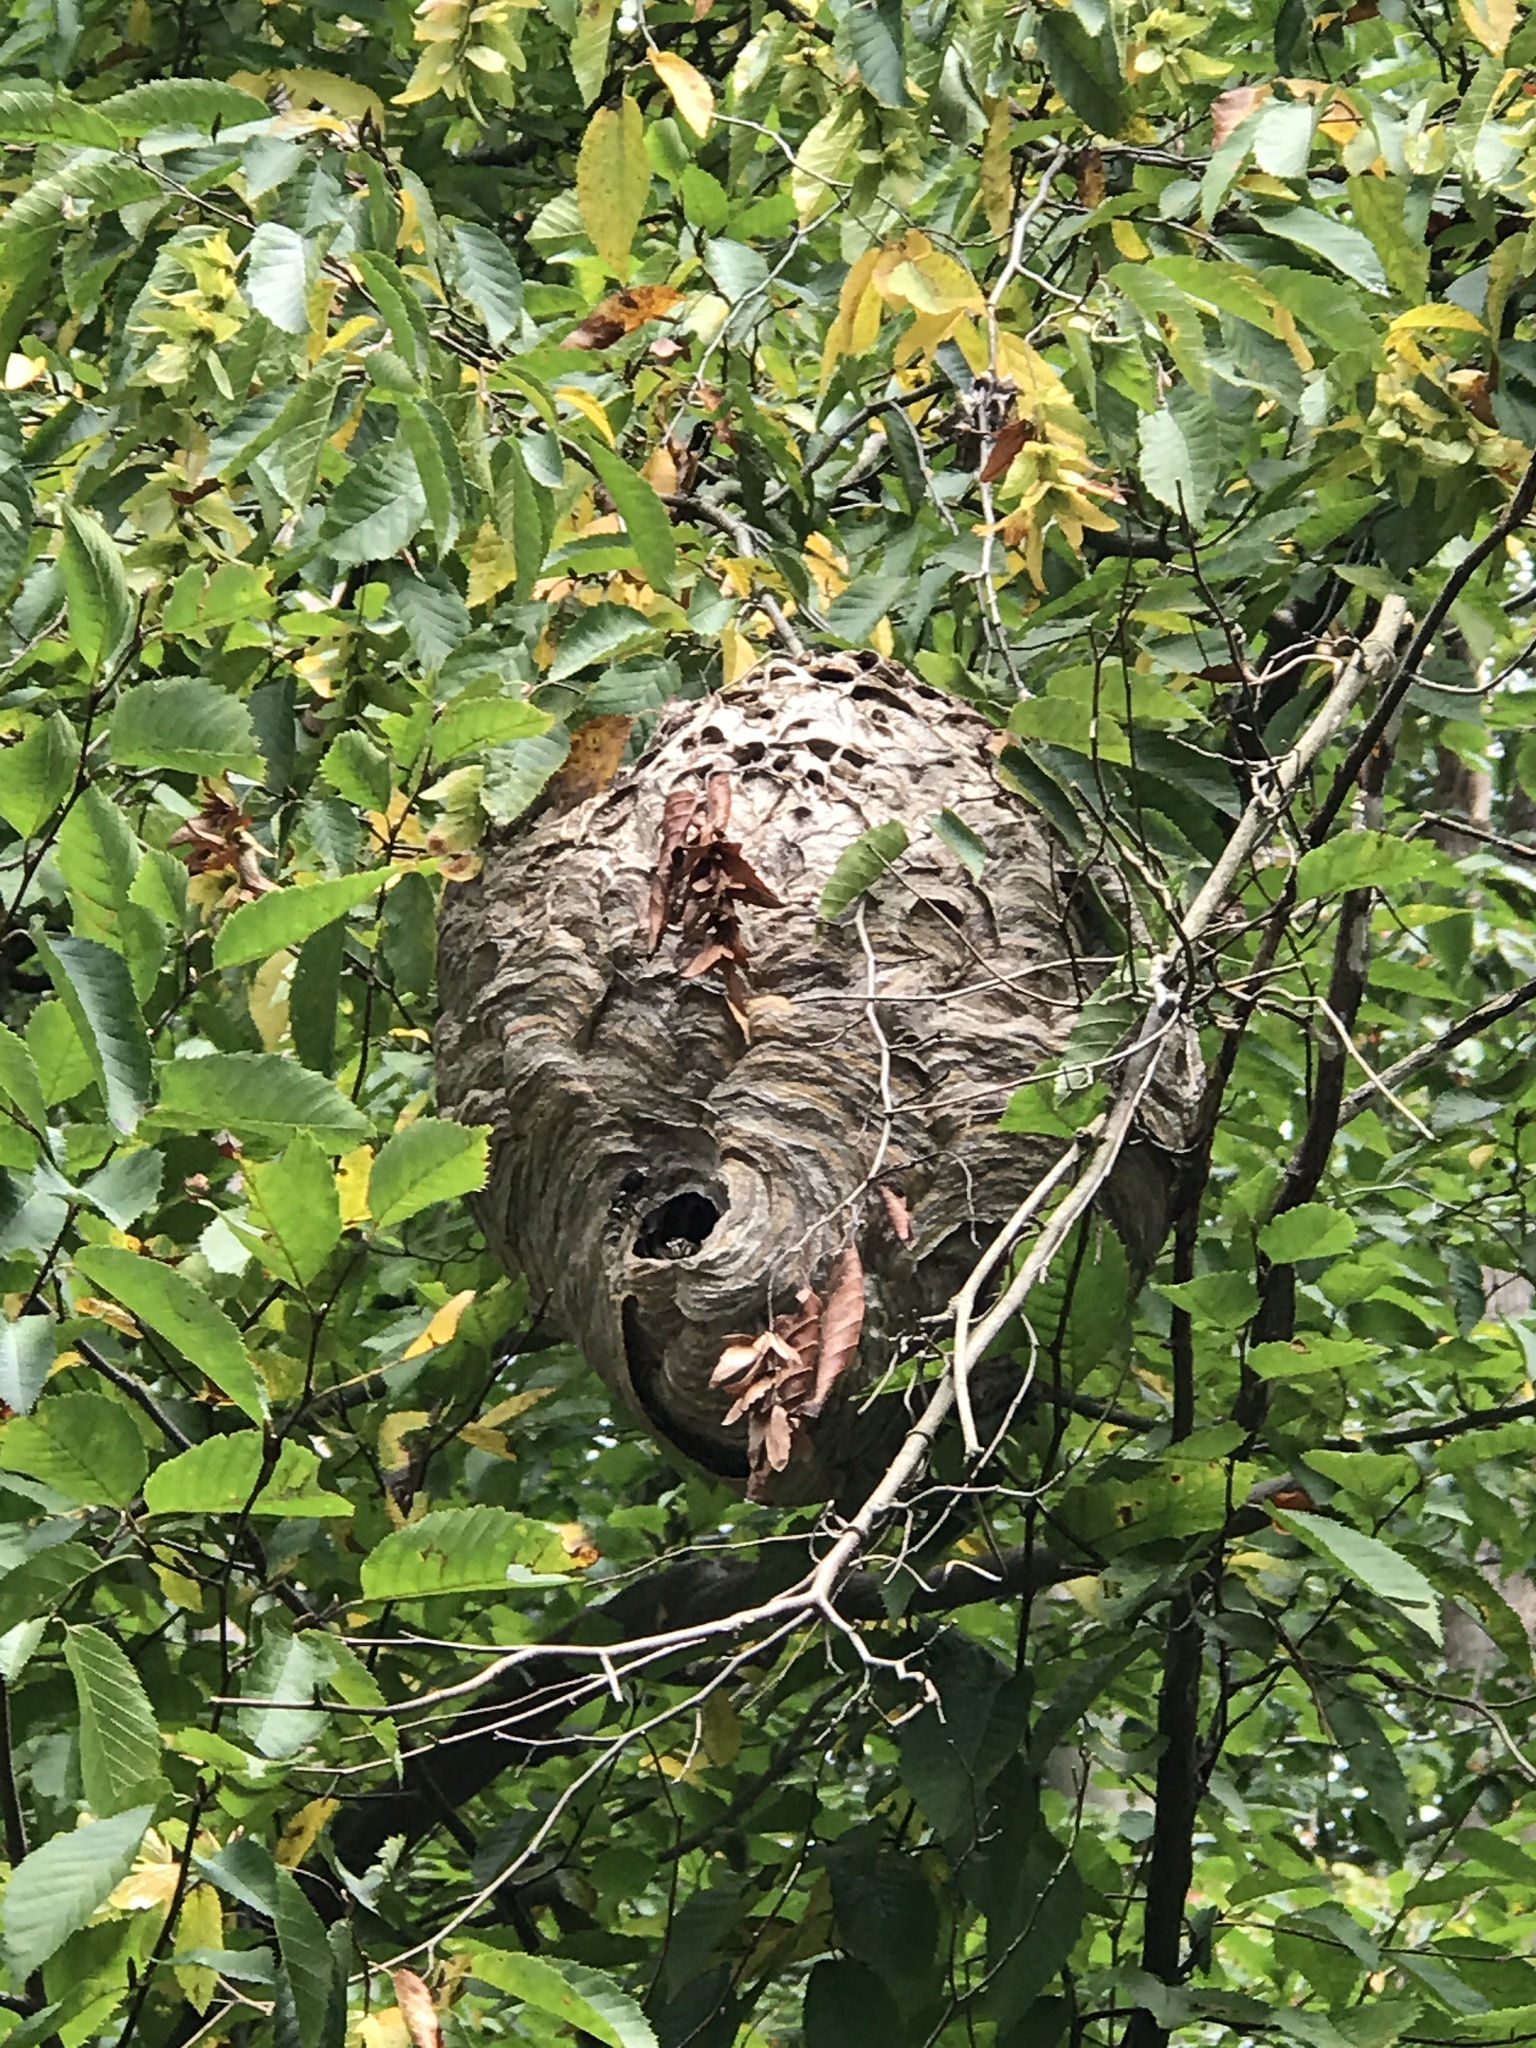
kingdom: Animalia
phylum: Arthropoda
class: Insecta
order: Hymenoptera
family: Vespidae
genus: Dolichovespula
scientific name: Dolichovespula maculata
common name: Bald-faced hornet
